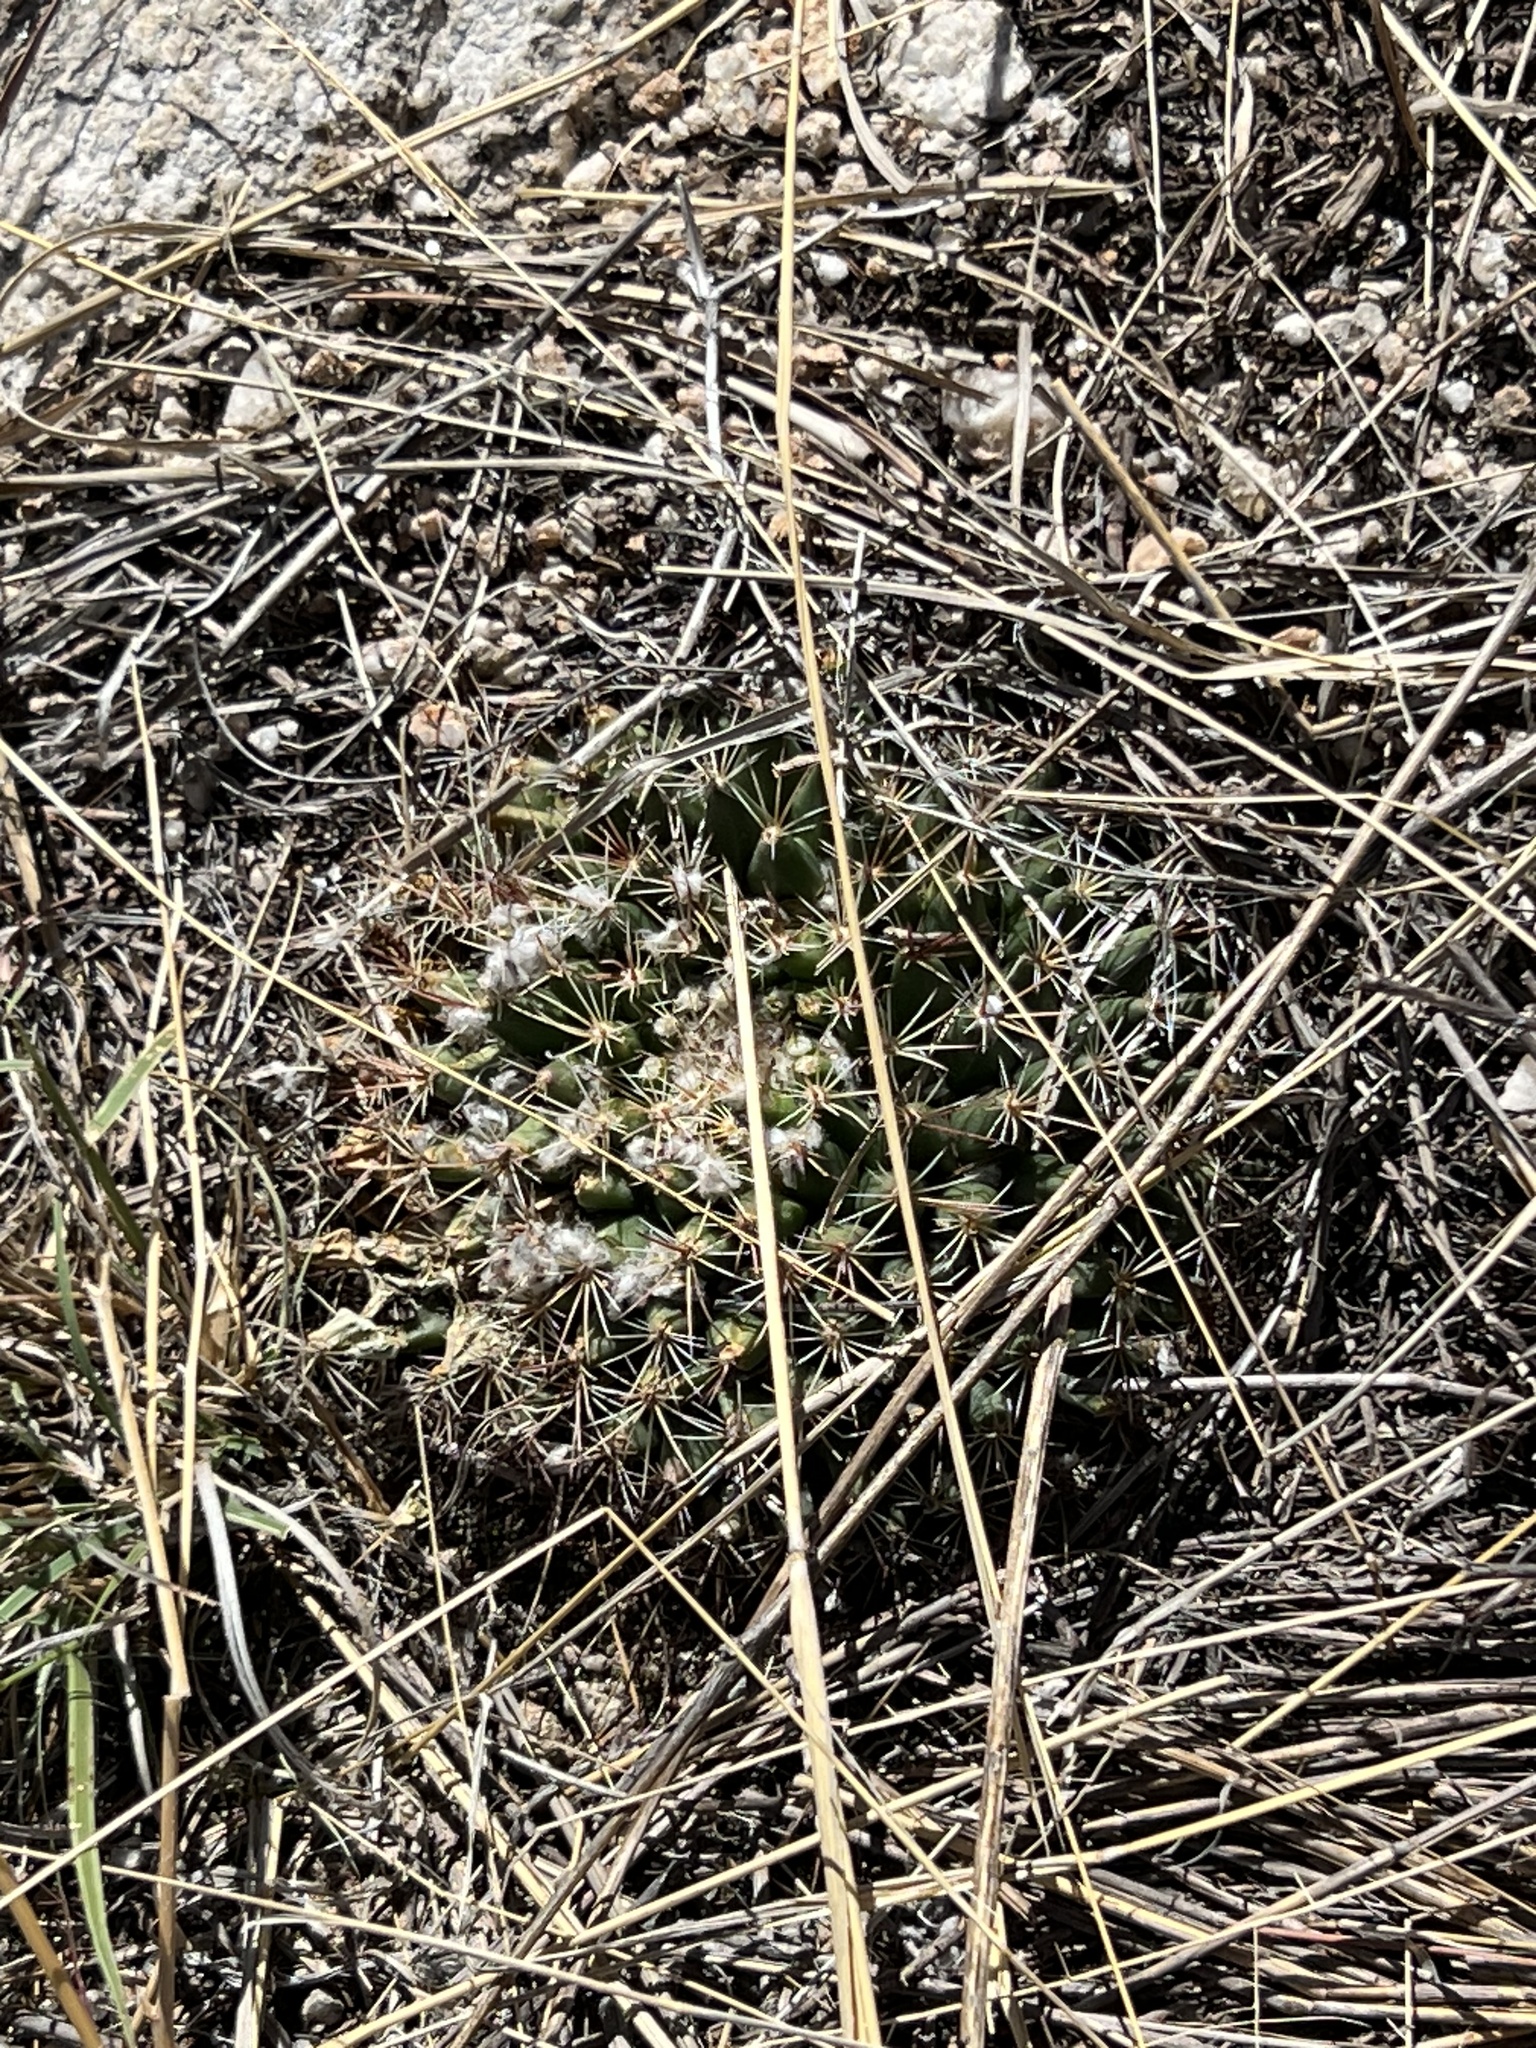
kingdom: Plantae
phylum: Tracheophyta
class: Magnoliopsida
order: Caryophyllales
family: Cactaceae
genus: Mammillaria
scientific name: Mammillaria heyderi
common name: Little nipple cactus
